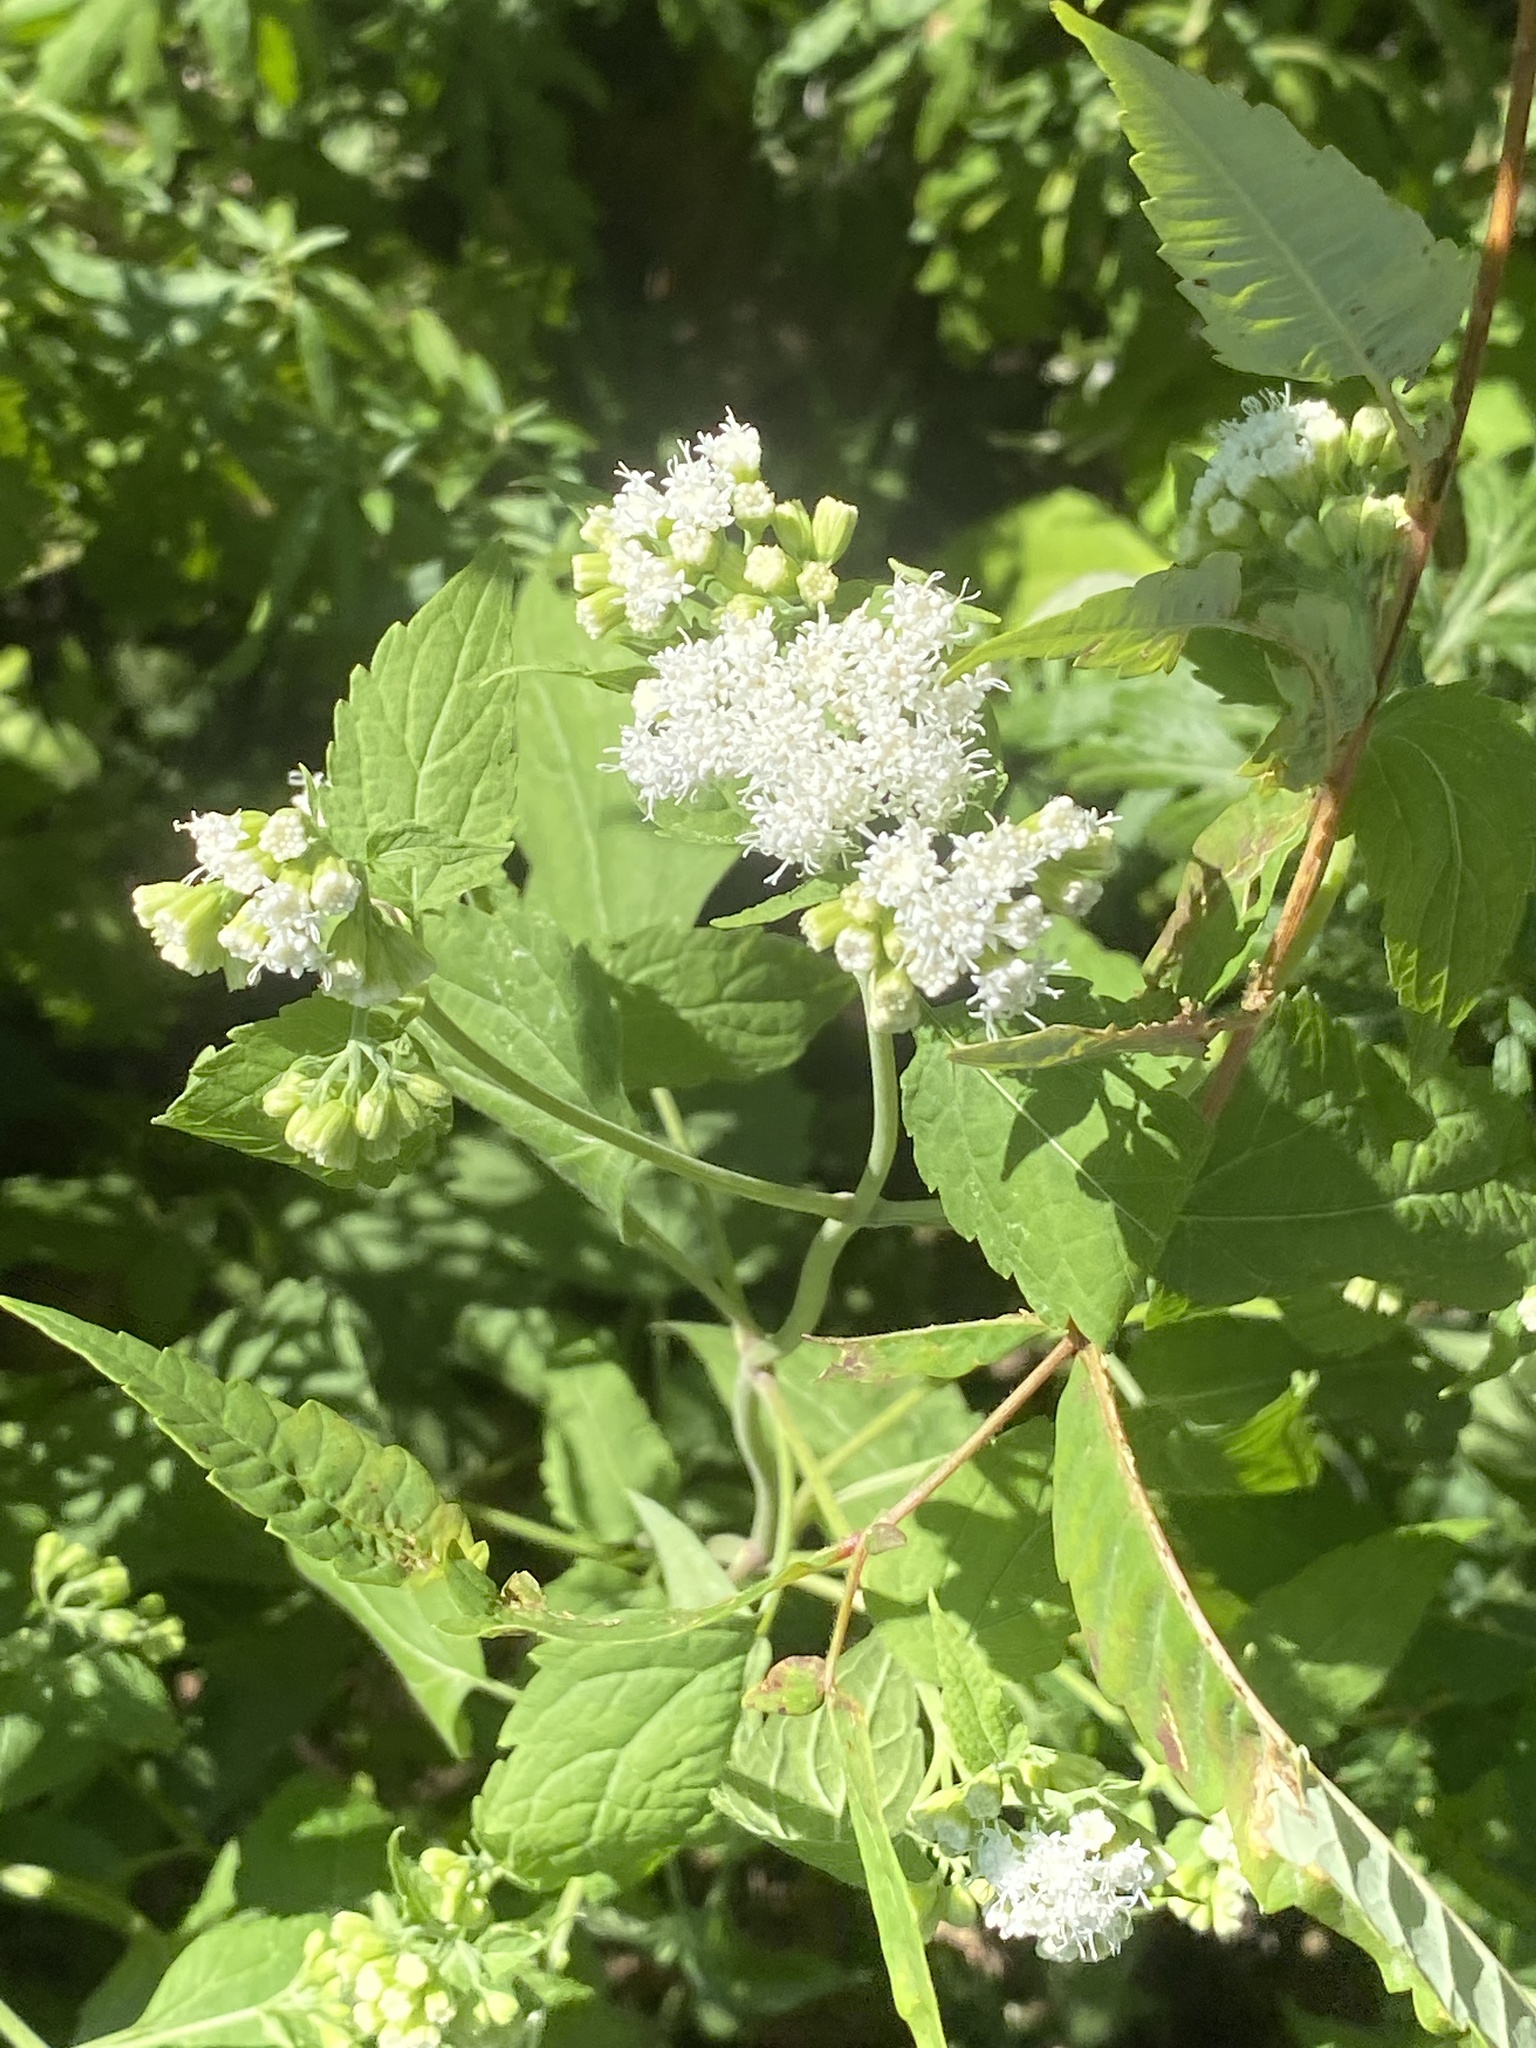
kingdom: Plantae
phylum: Tracheophyta
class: Magnoliopsida
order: Asterales
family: Asteraceae
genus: Ageratina
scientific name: Ageratina altissima
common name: White snakeroot
